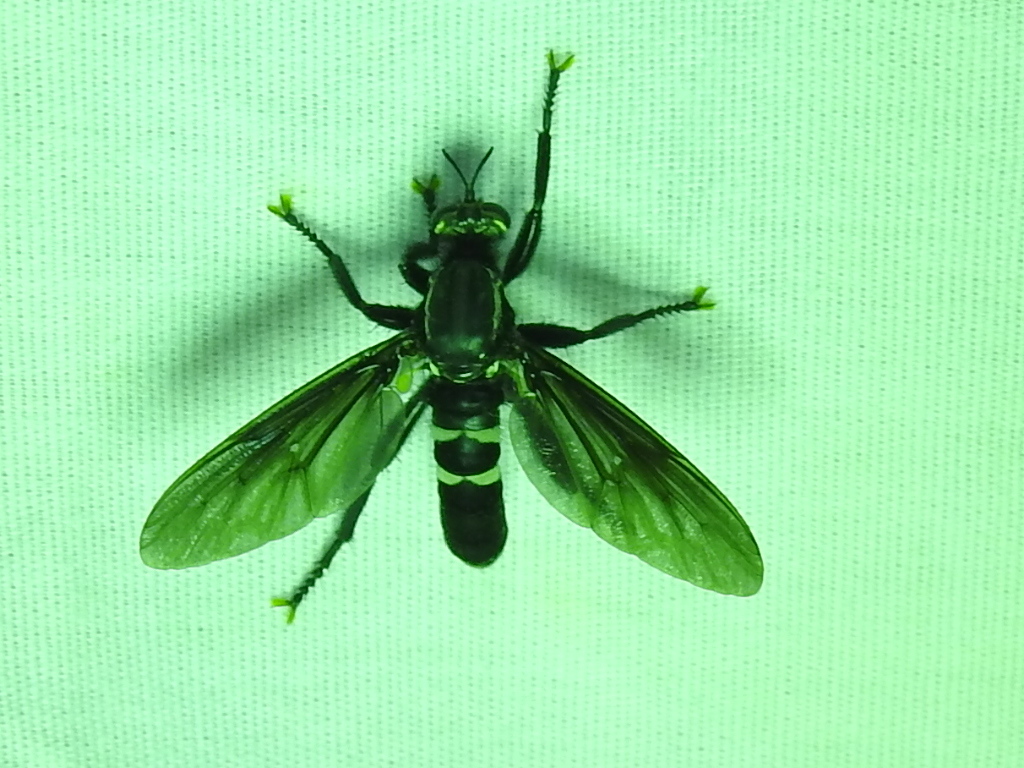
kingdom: Animalia
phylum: Arthropoda
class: Insecta
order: Diptera
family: Asilidae
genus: Prolepsis
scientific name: Prolepsis tristis
